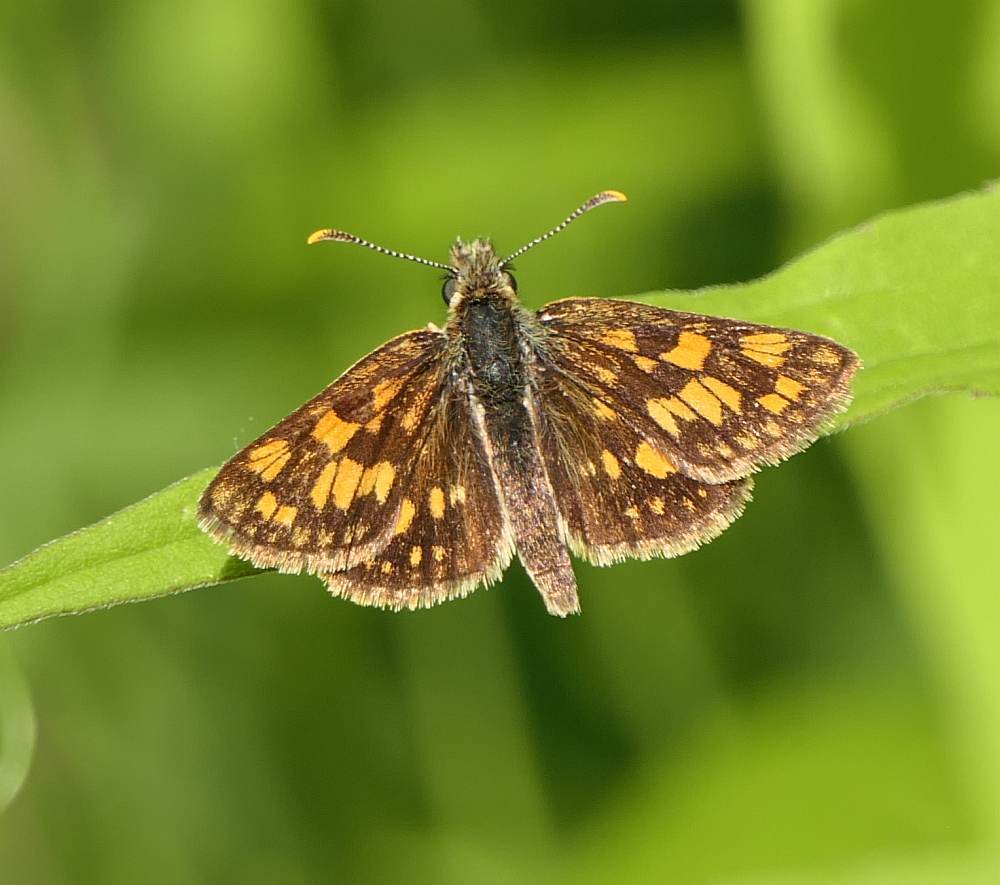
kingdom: Animalia
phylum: Arthropoda
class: Insecta
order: Lepidoptera
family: Hesperiidae
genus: Carterocephalus
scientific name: Carterocephalus mandan
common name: Arctic skipperling
